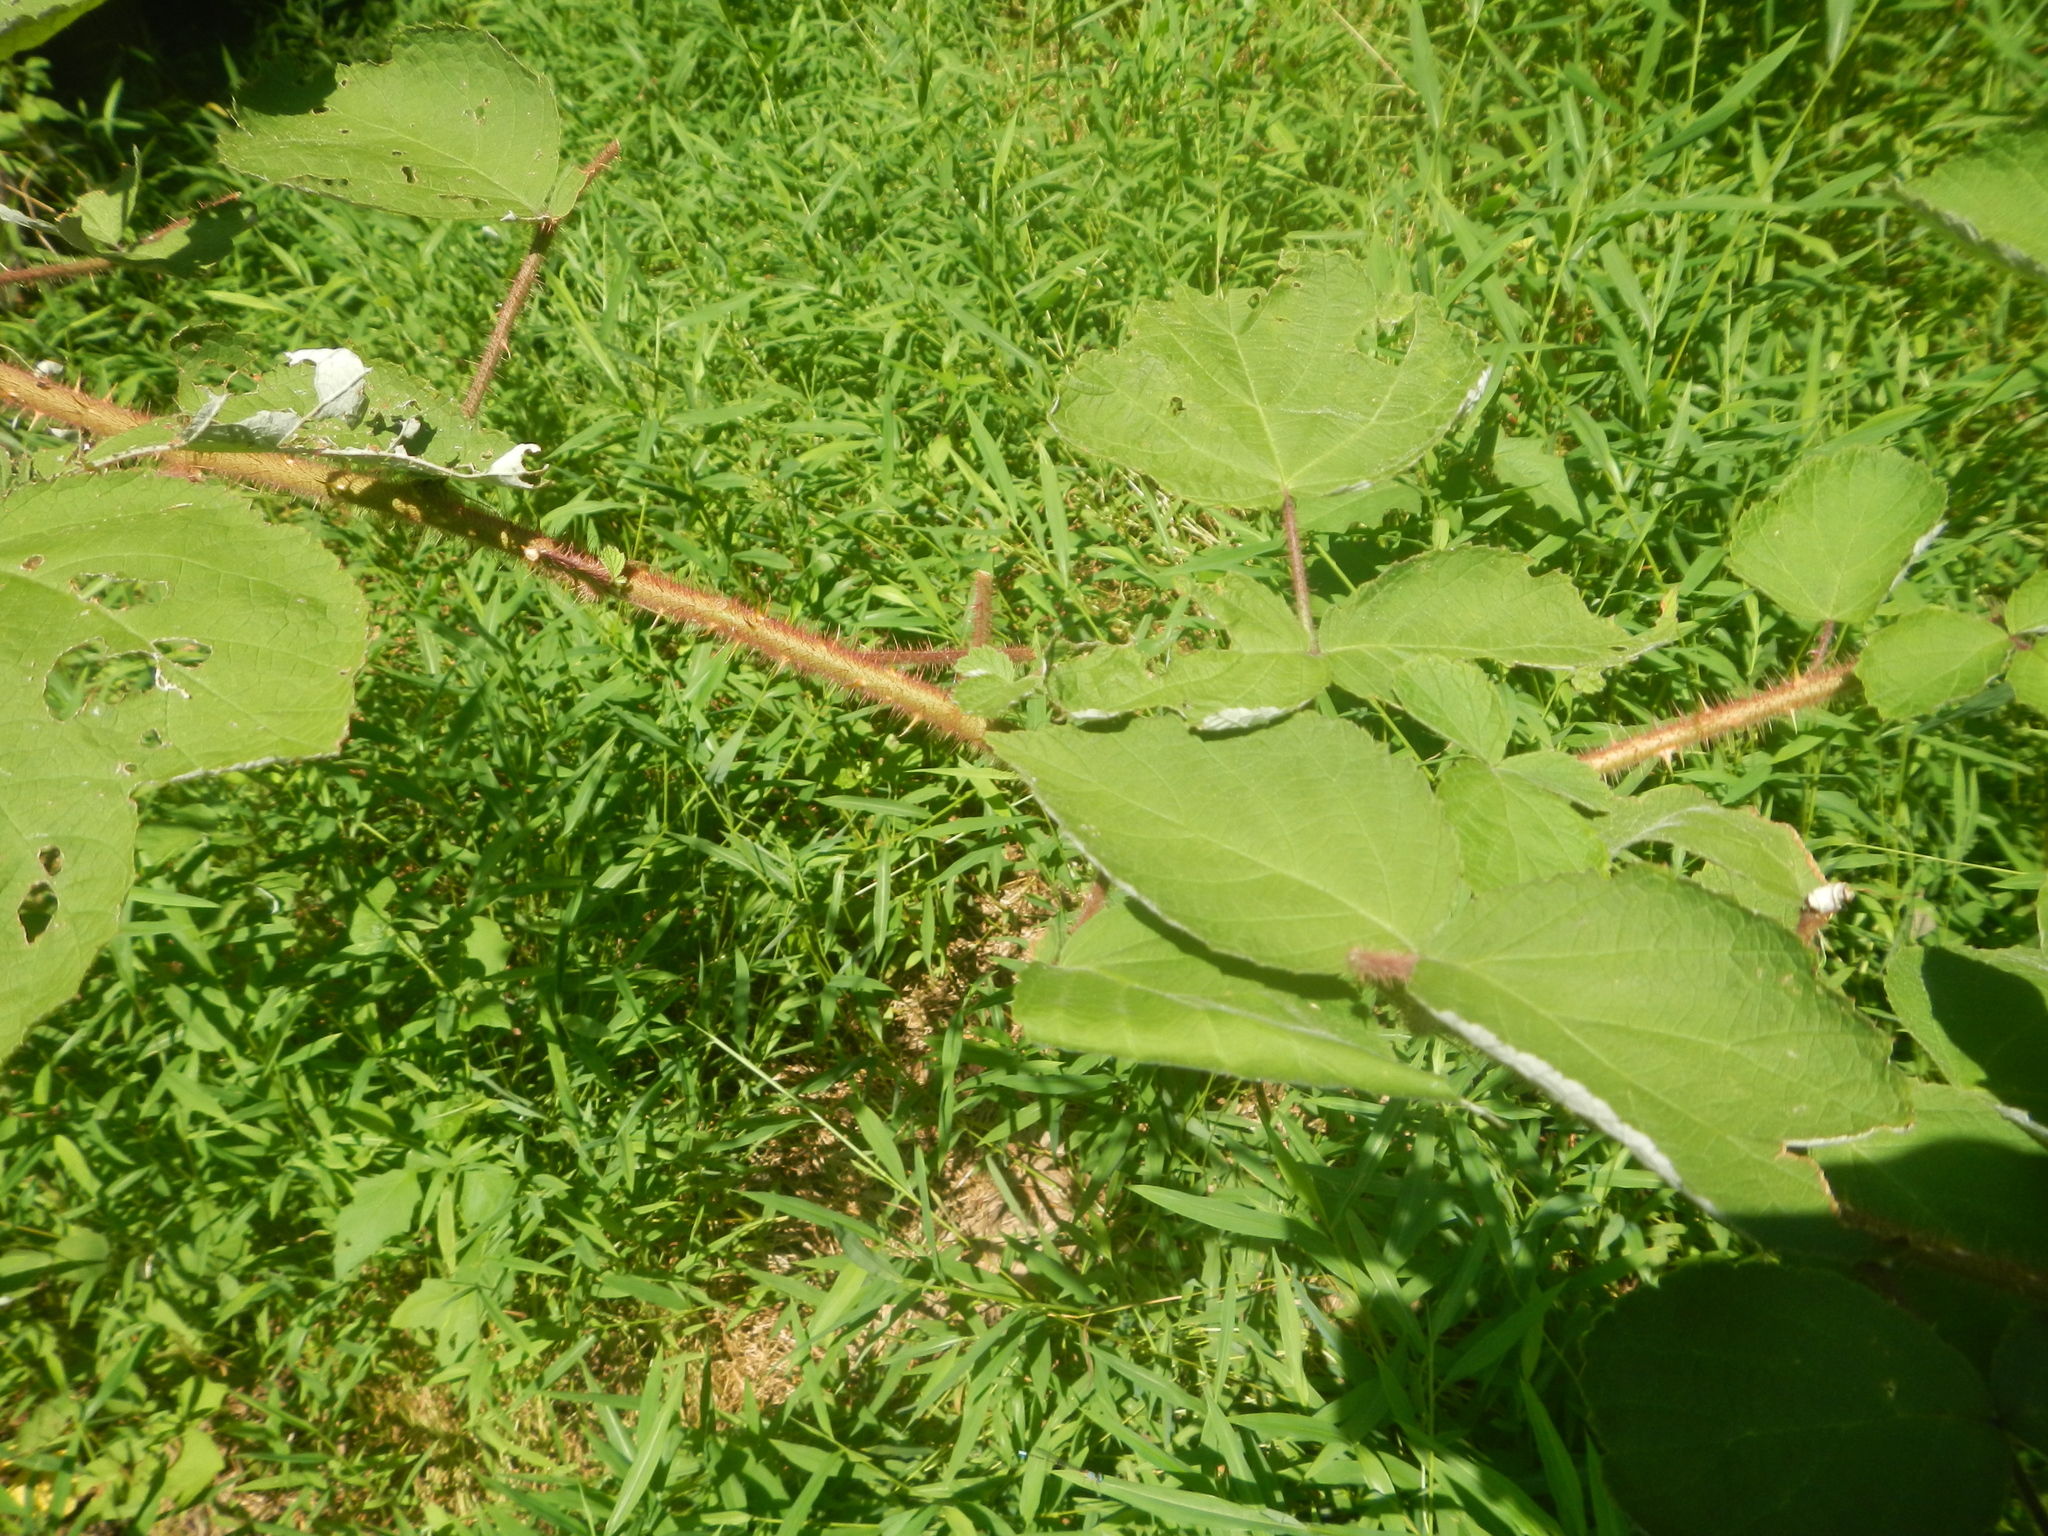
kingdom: Plantae
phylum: Tracheophyta
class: Magnoliopsida
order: Rosales
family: Rosaceae
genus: Rubus
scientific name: Rubus phoenicolasius
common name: Japanese wineberry
